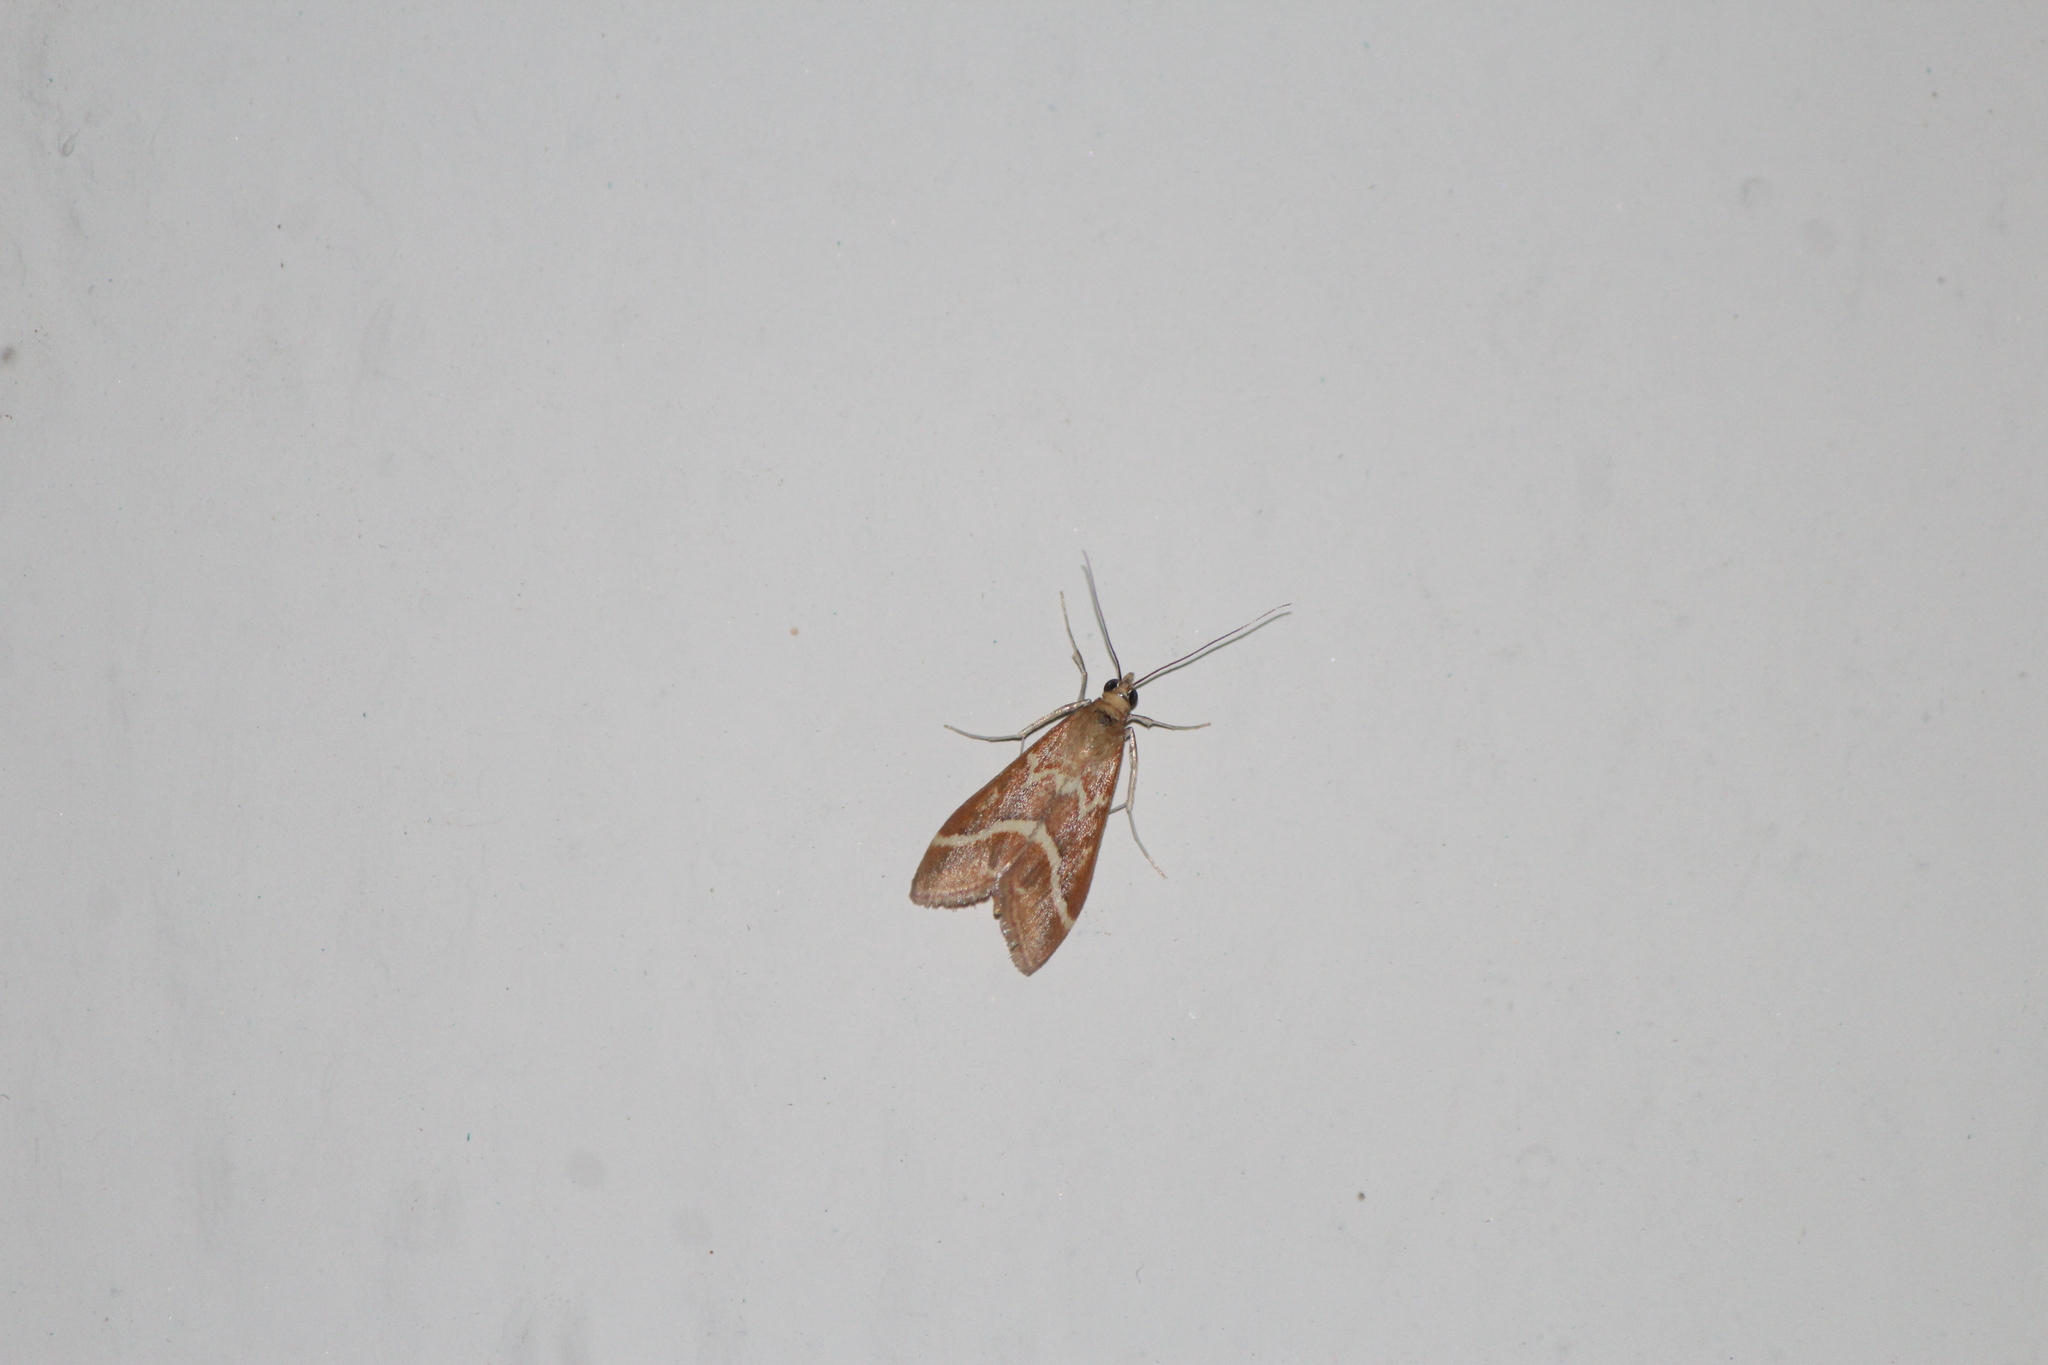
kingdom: Animalia
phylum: Arthropoda
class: Insecta
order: Lepidoptera
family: Crambidae
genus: Pyrausta
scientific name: Pyrausta volupialis
